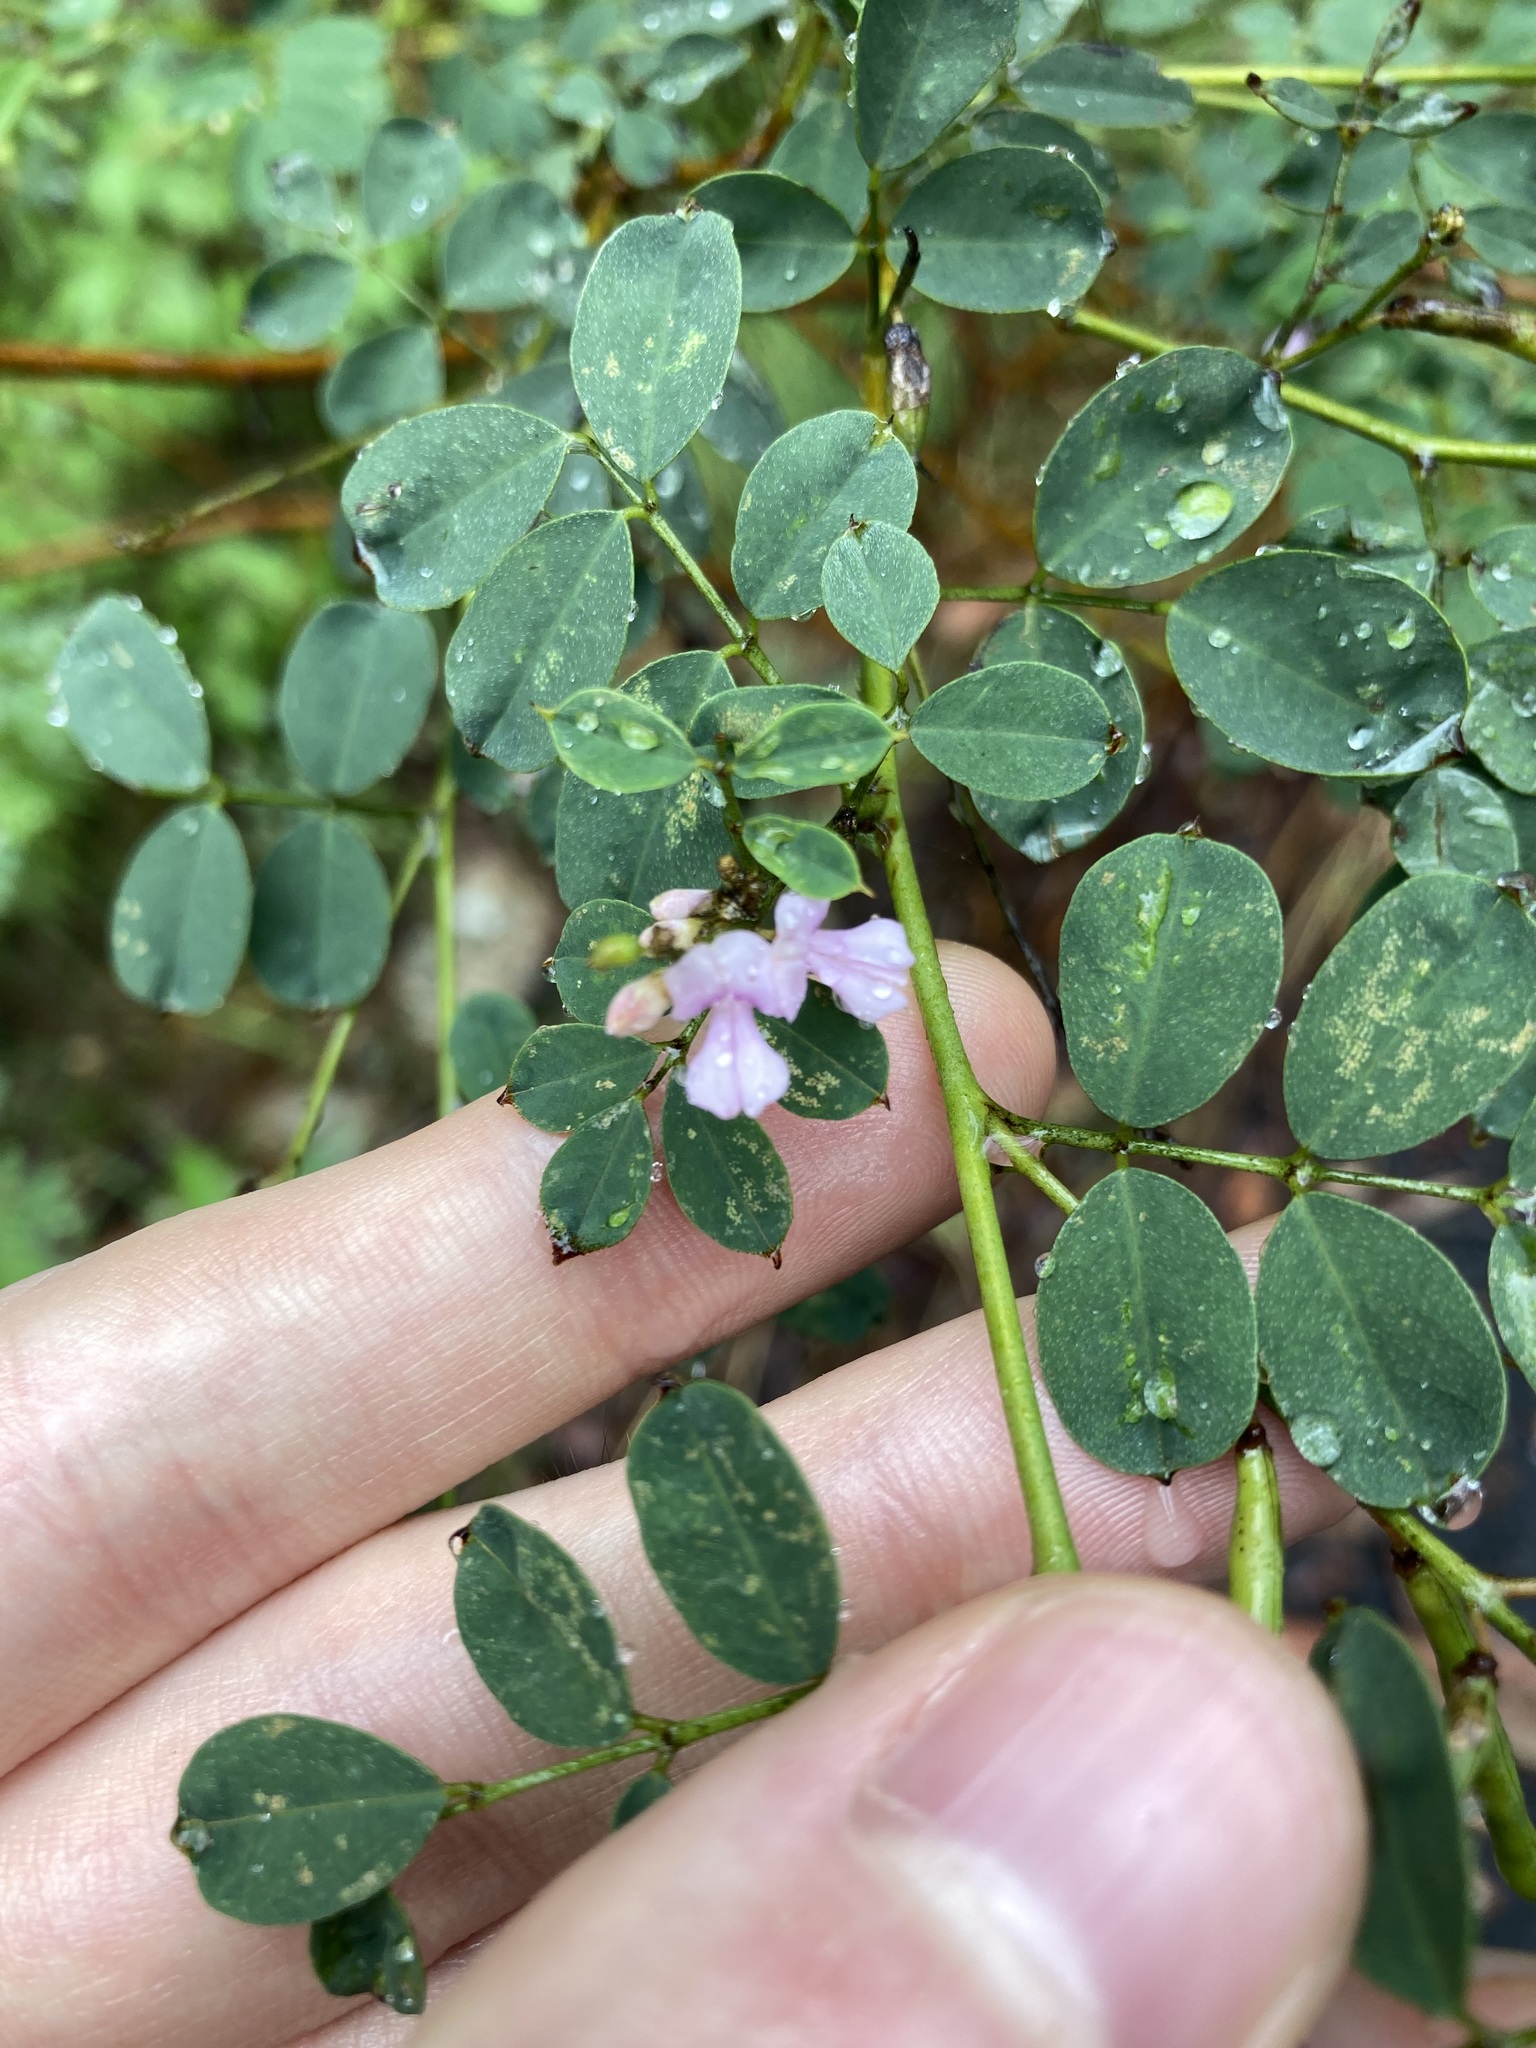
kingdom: Plantae
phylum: Tracheophyta
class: Magnoliopsida
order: Fabales
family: Fabaceae
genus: Indigofera
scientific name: Indigofera australis
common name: Australian indigo
